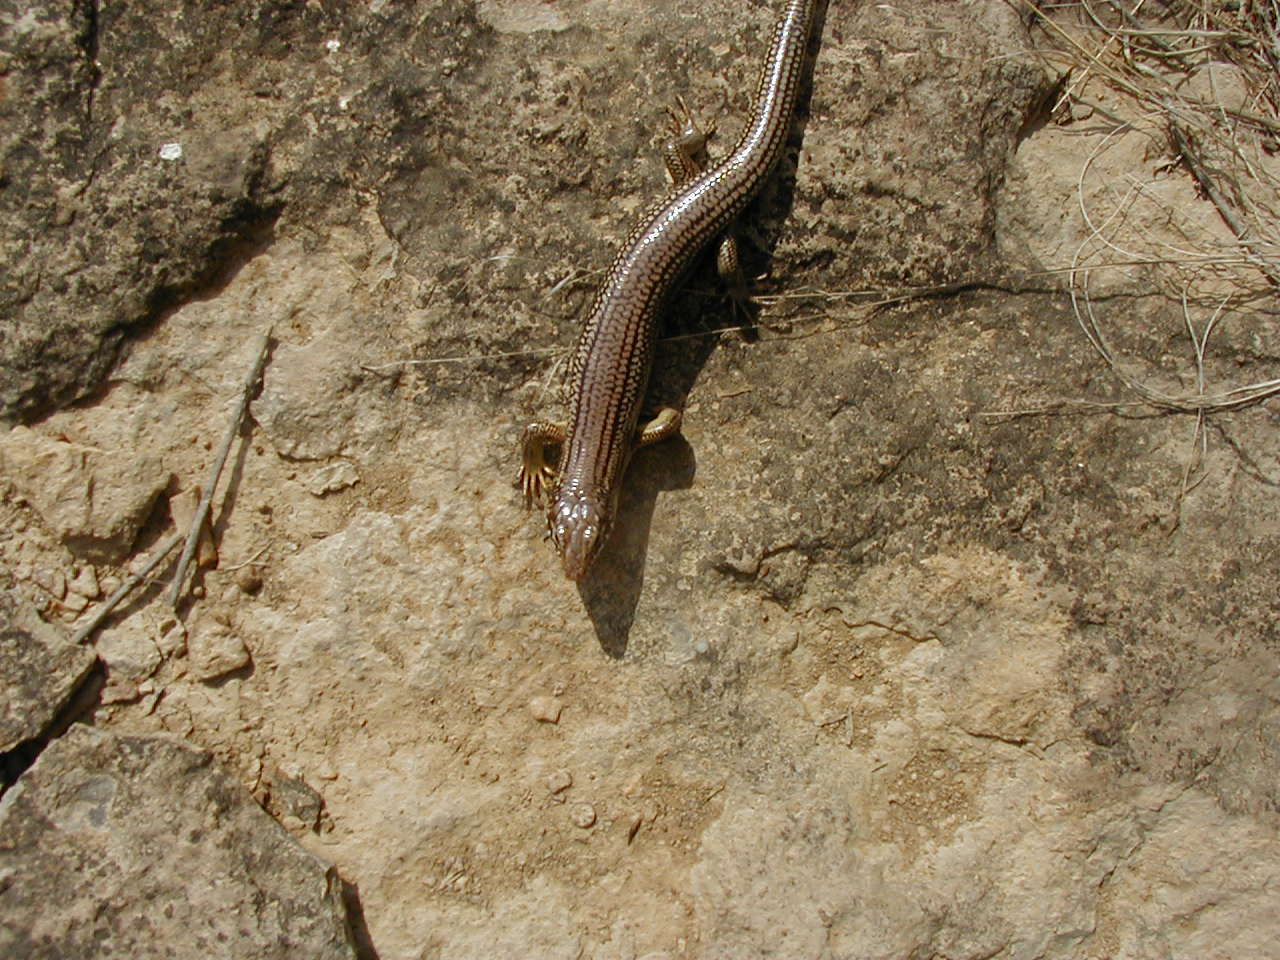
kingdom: Animalia
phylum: Chordata
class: Squamata
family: Scincidae
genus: Plestiodon
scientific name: Plestiodon obsoletus
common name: Great plains skink
